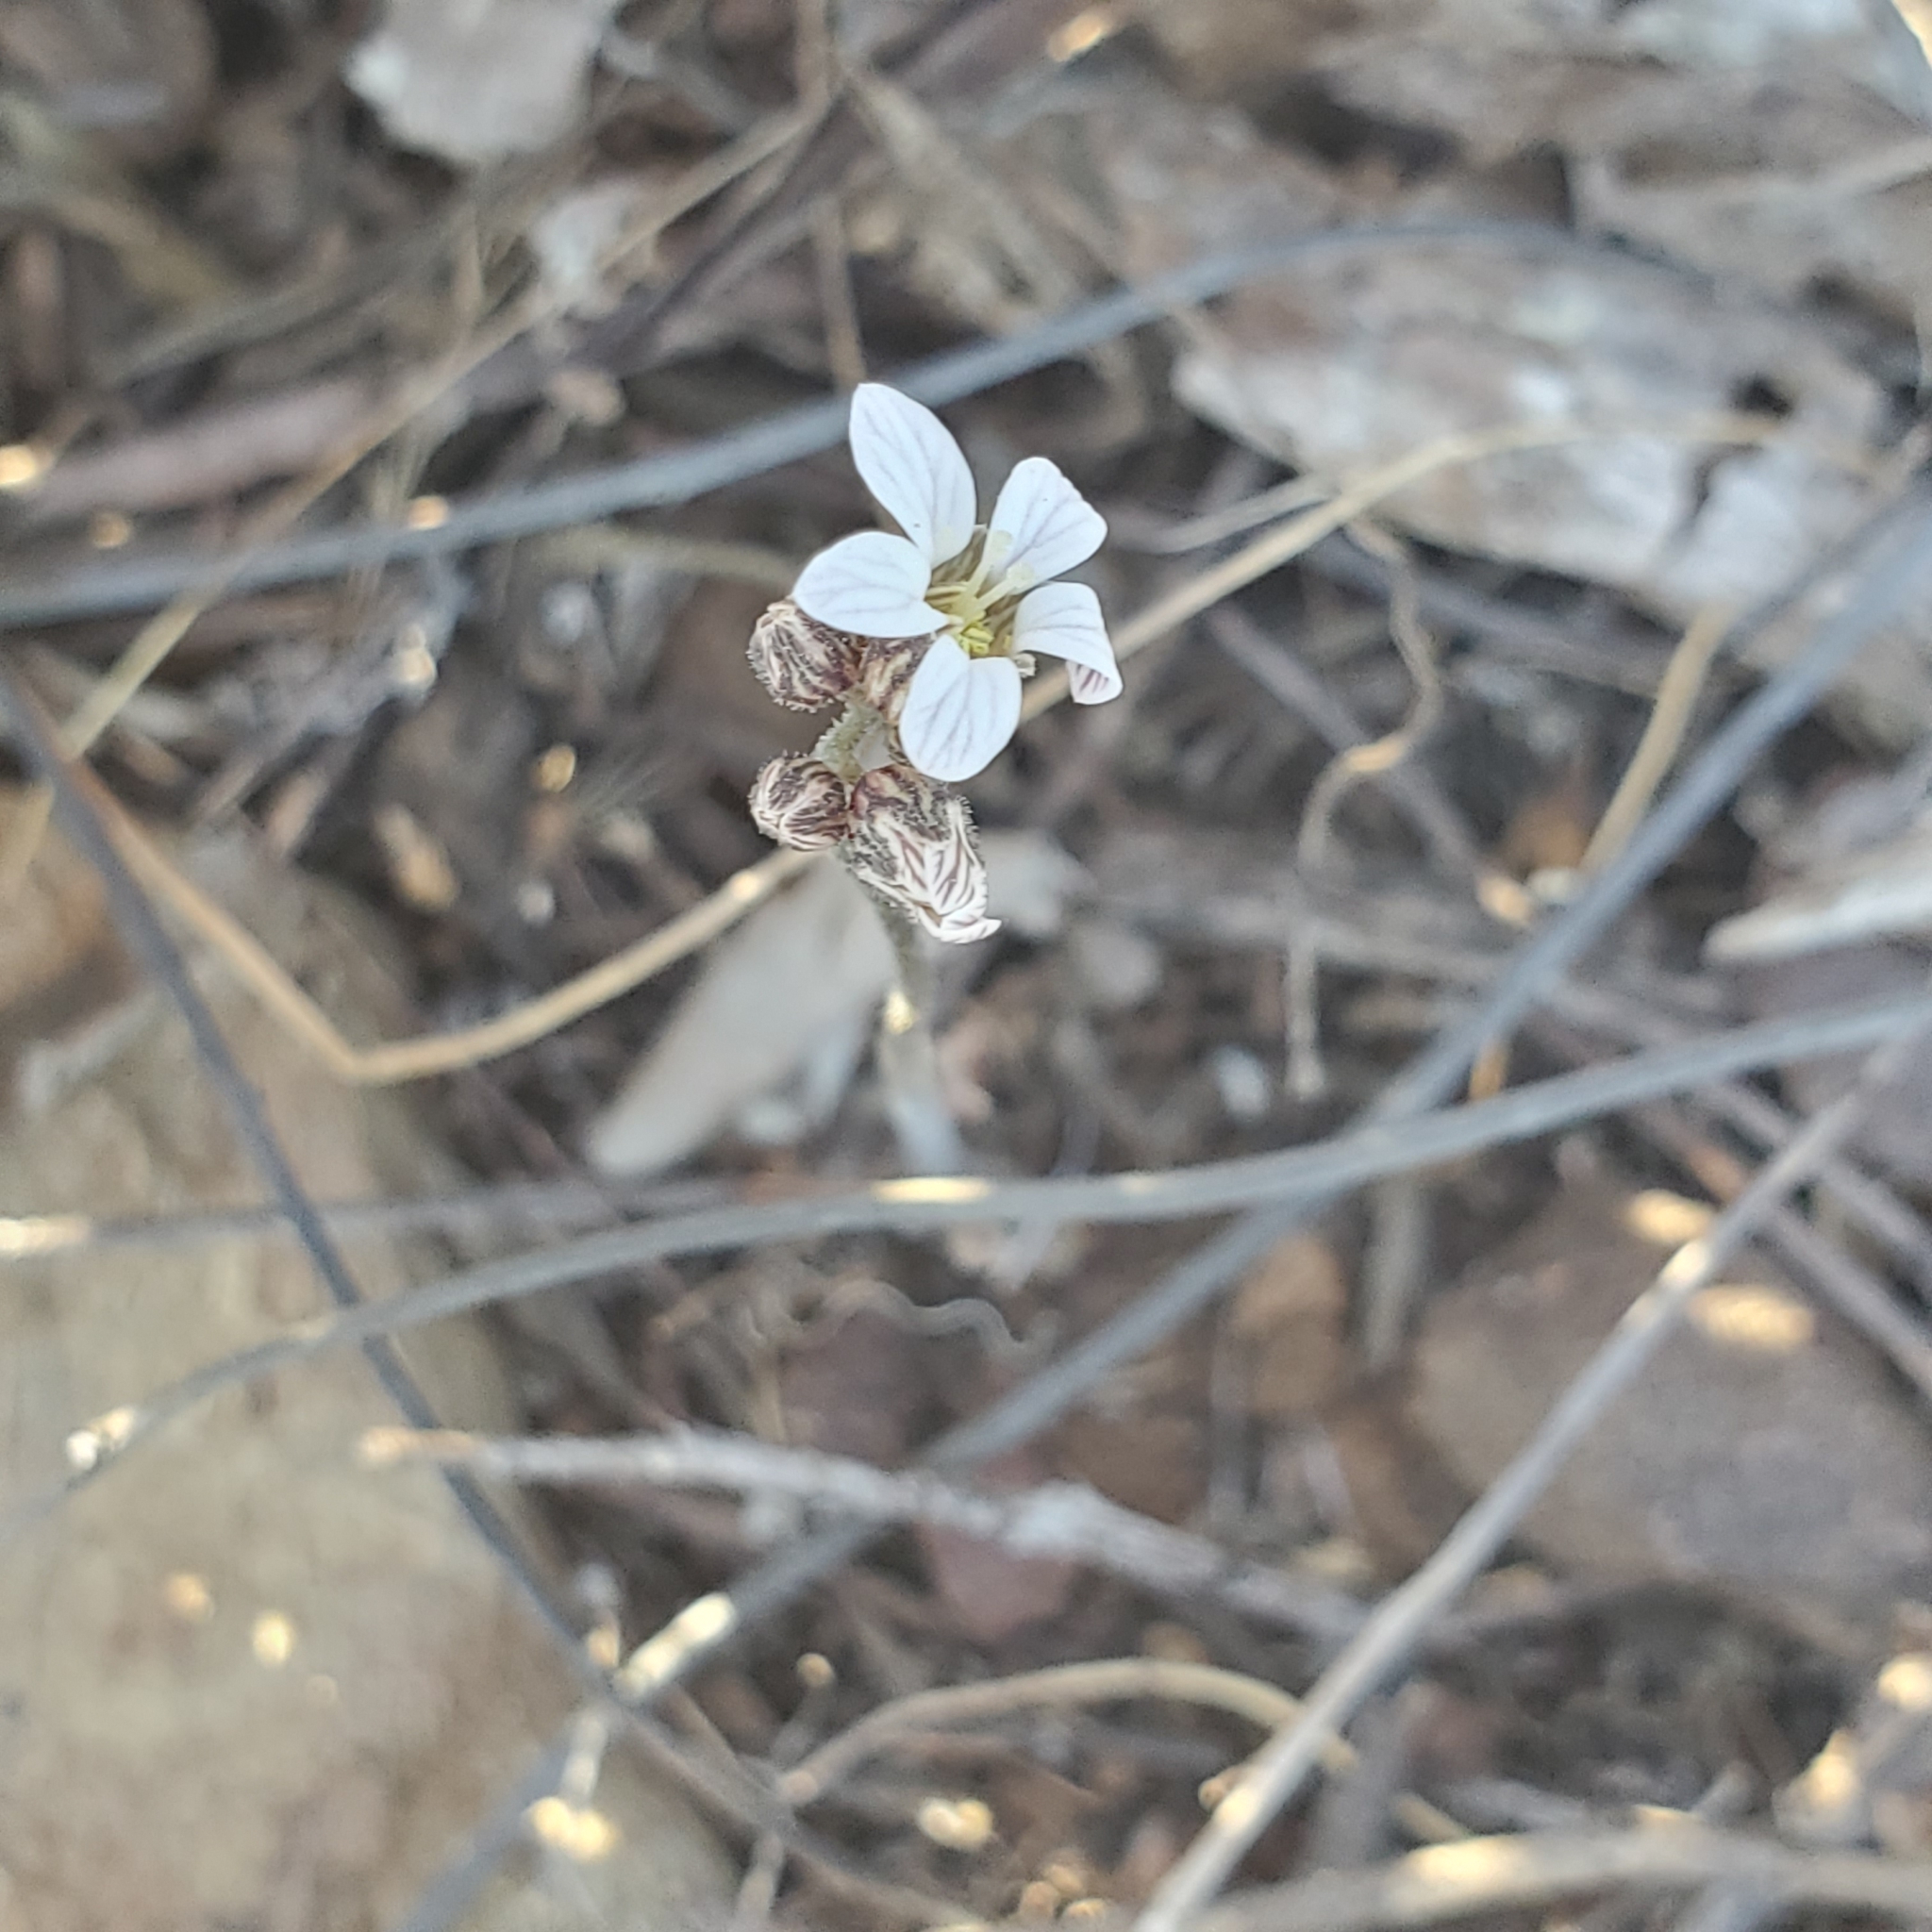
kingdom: Plantae
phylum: Tracheophyta
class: Magnoliopsida
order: Saxifragales
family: Saxifragaceae
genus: Jepsonia
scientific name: Jepsonia parryi
